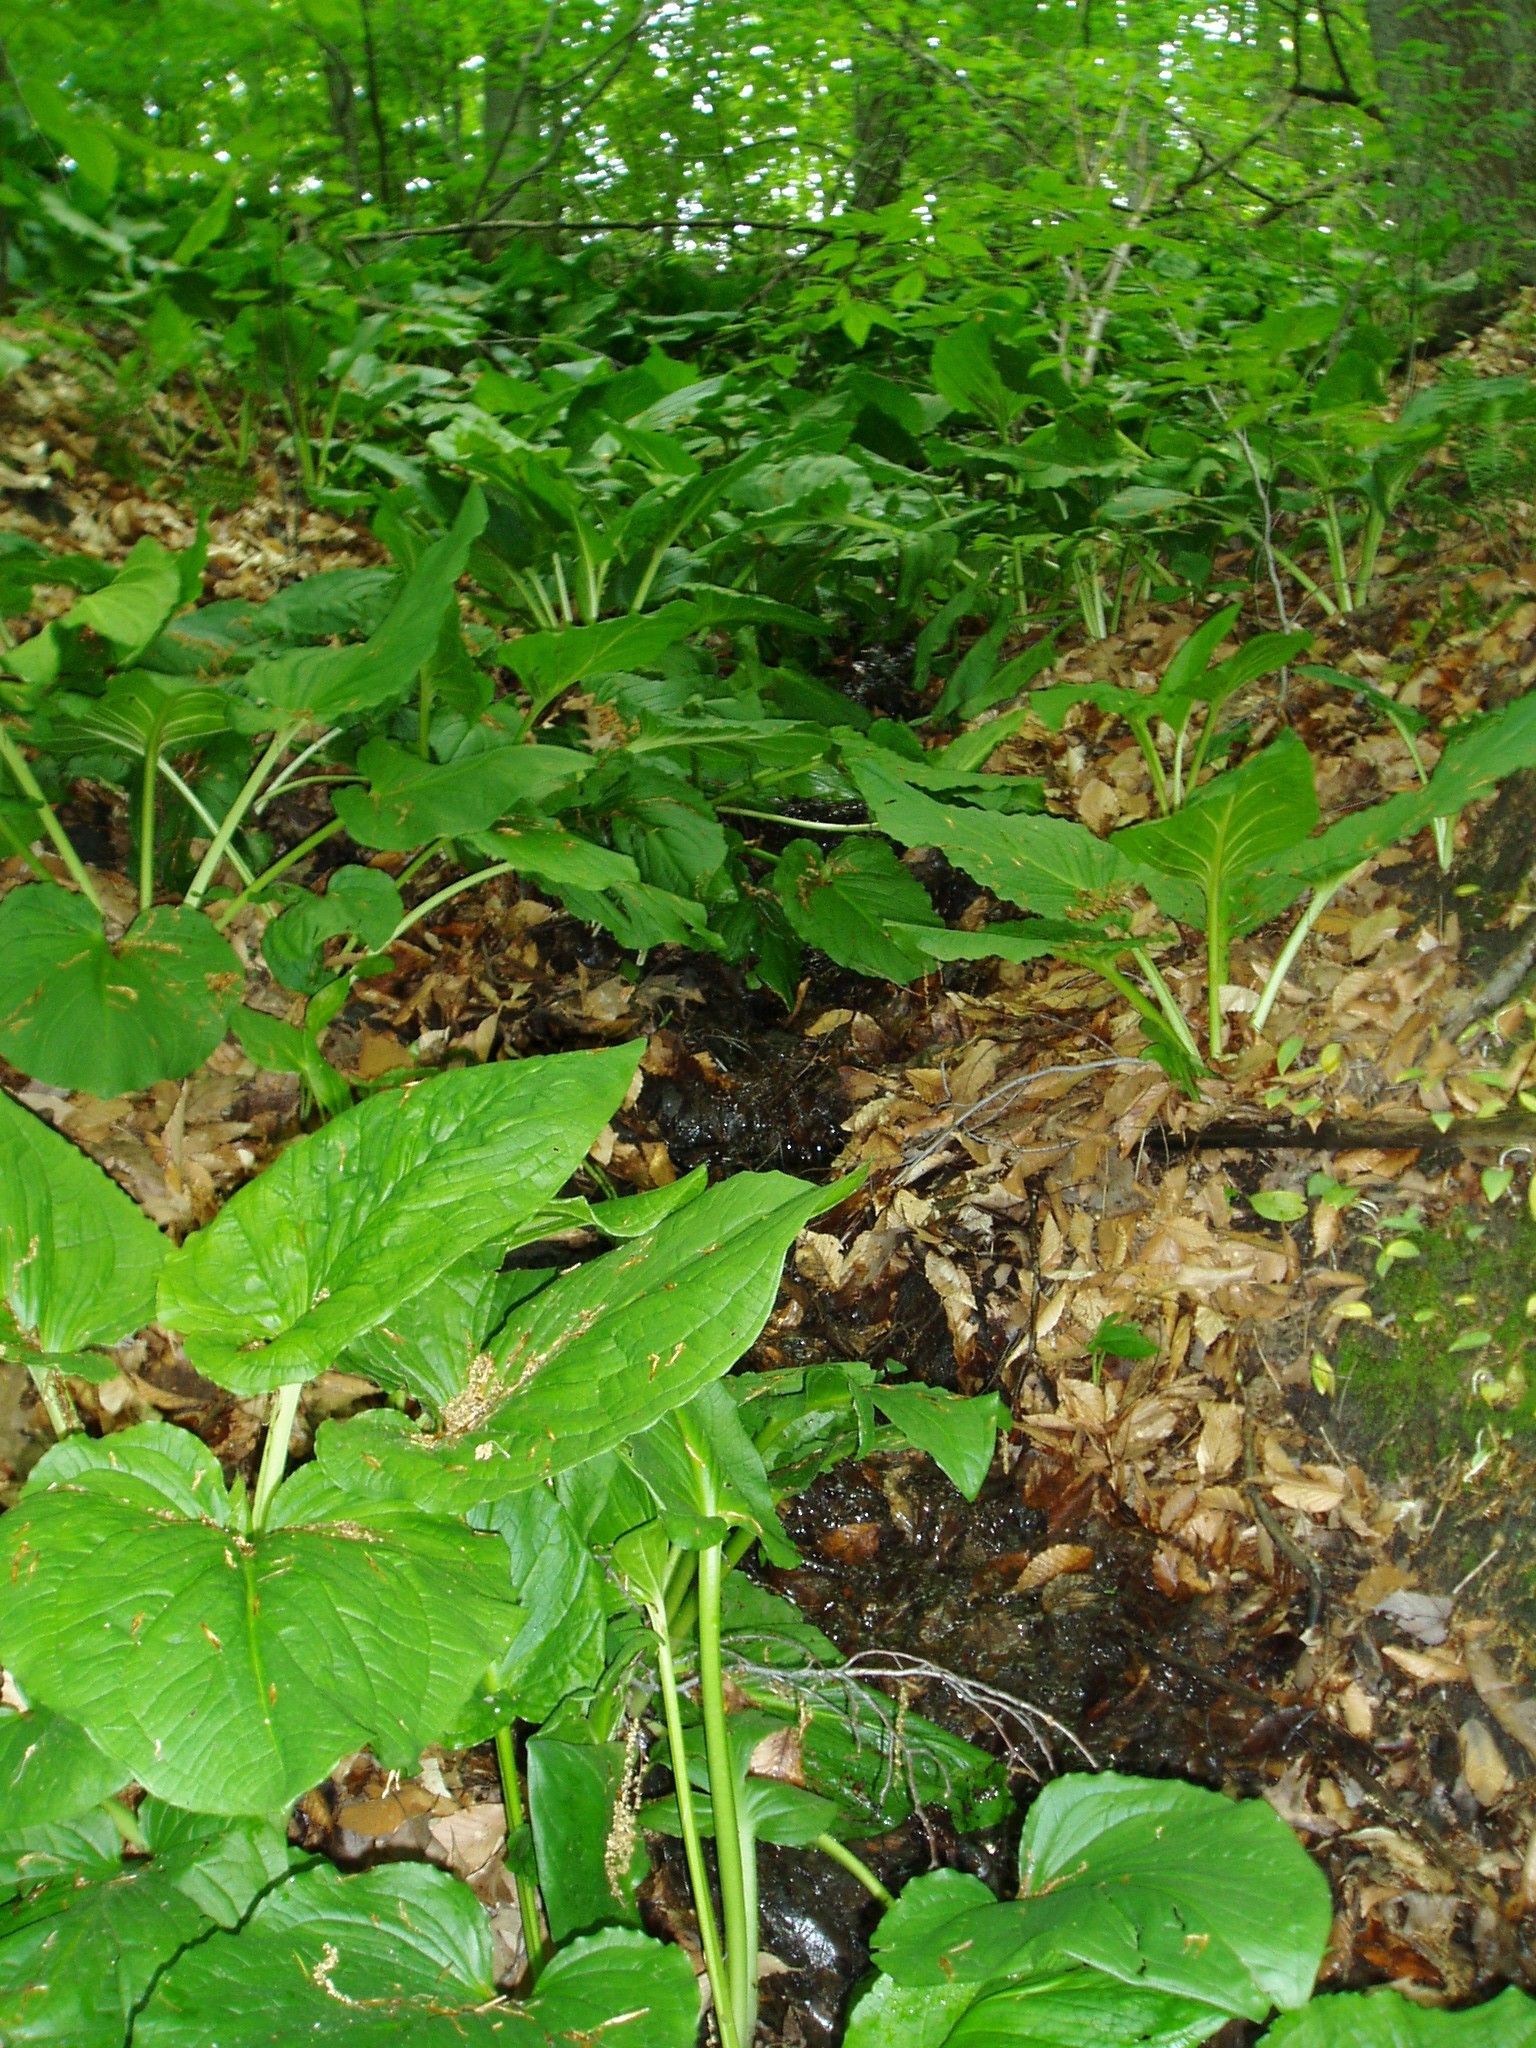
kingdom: Plantae
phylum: Tracheophyta
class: Liliopsida
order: Alismatales
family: Araceae
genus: Symplocarpus
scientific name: Symplocarpus foetidus
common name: Eastern skunk cabbage
